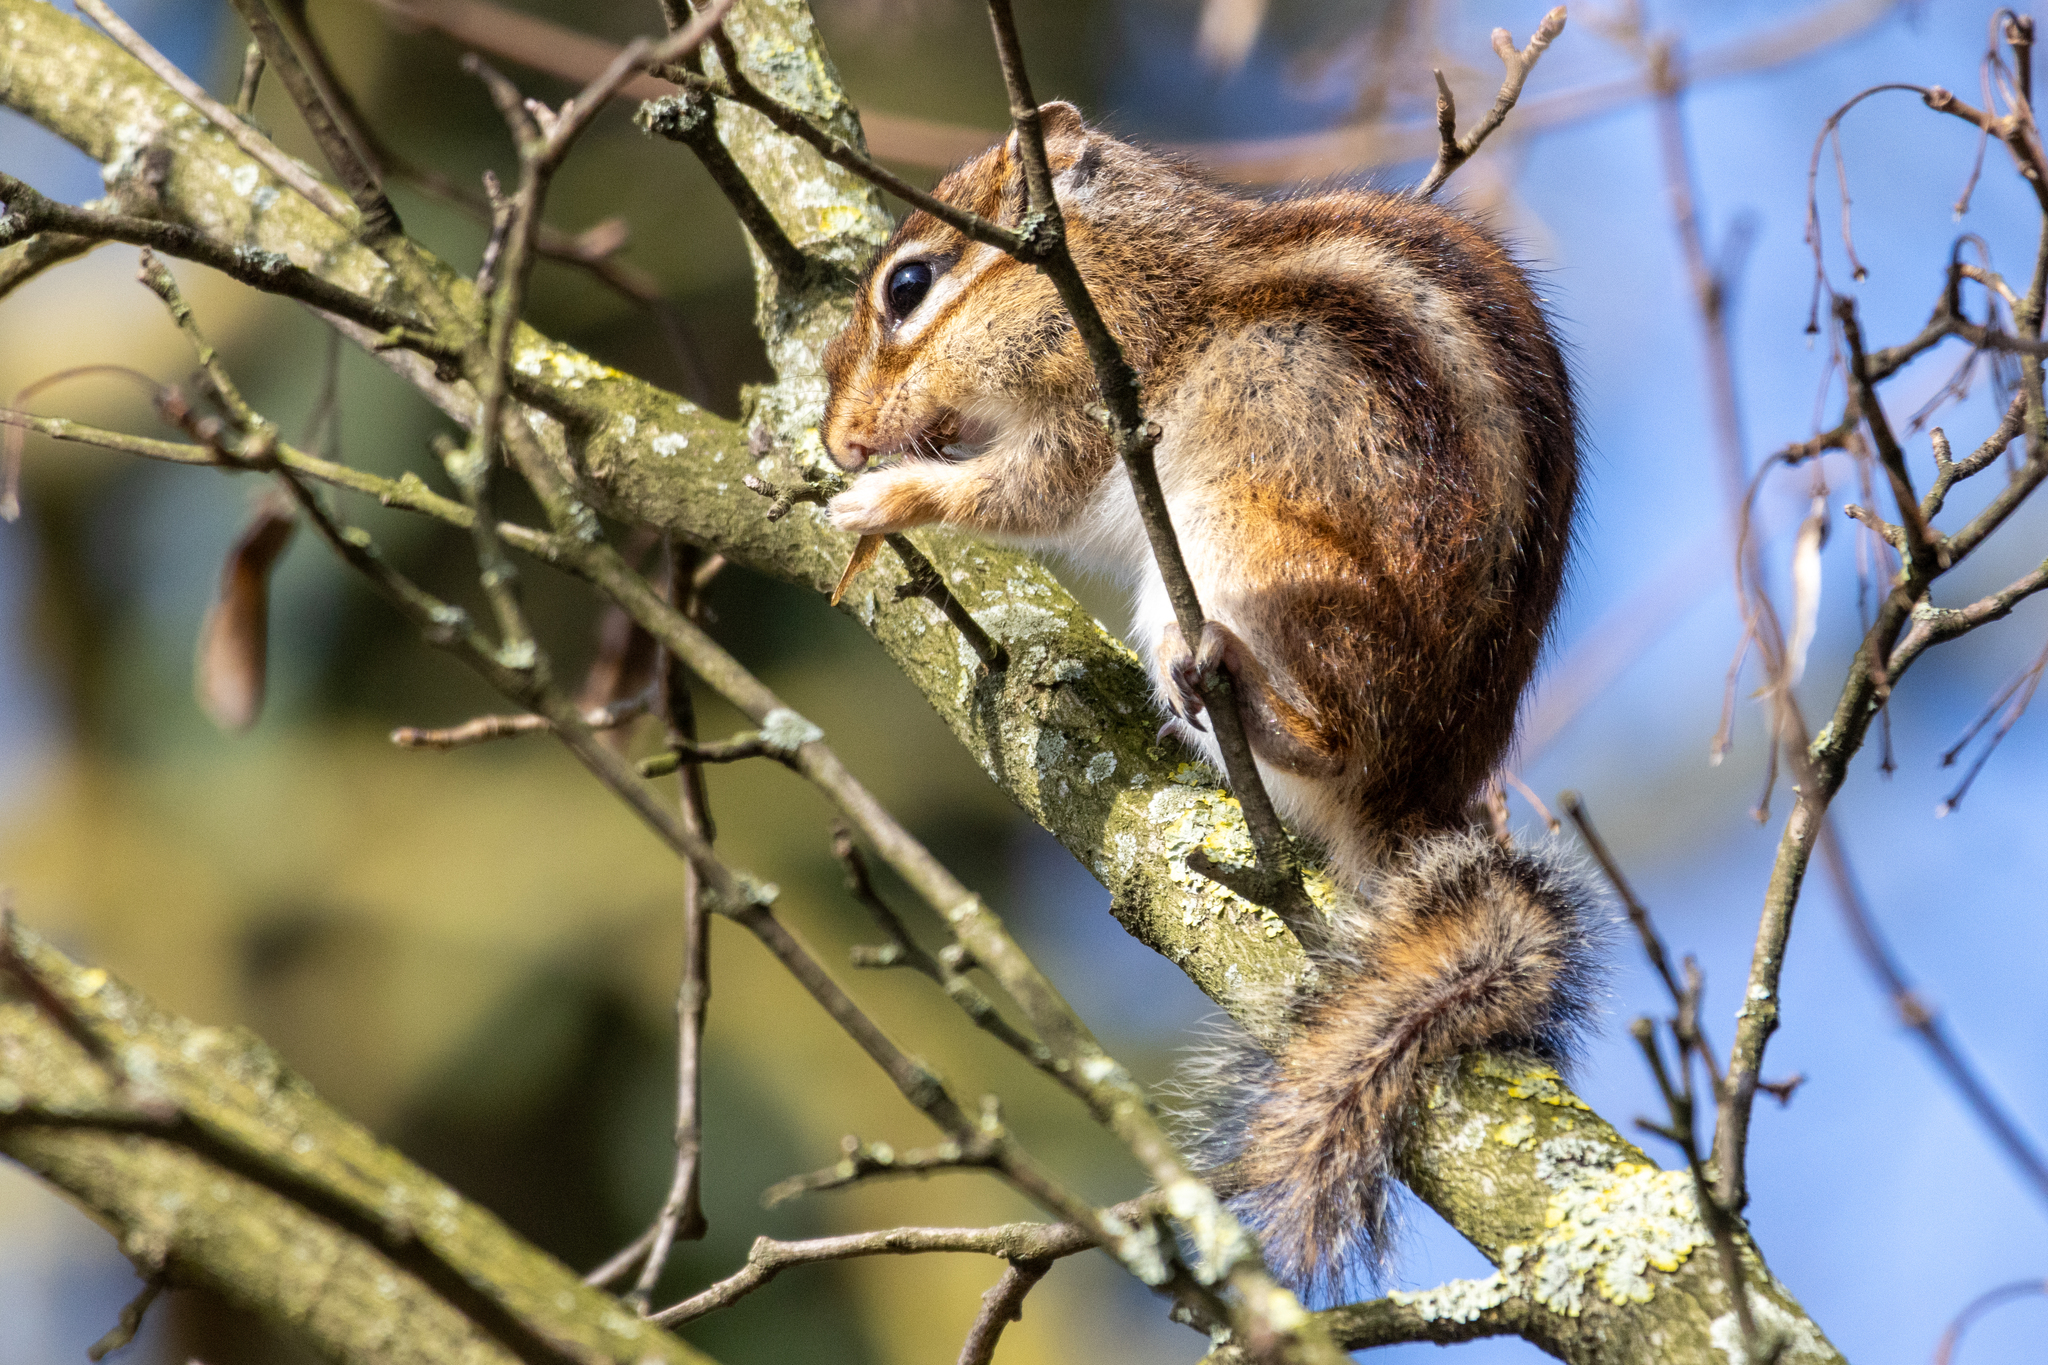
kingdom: Animalia
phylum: Chordata
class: Mammalia
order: Rodentia
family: Sciuridae
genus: Tamias
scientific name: Tamias sibiricus
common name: Siberian chipmunk
